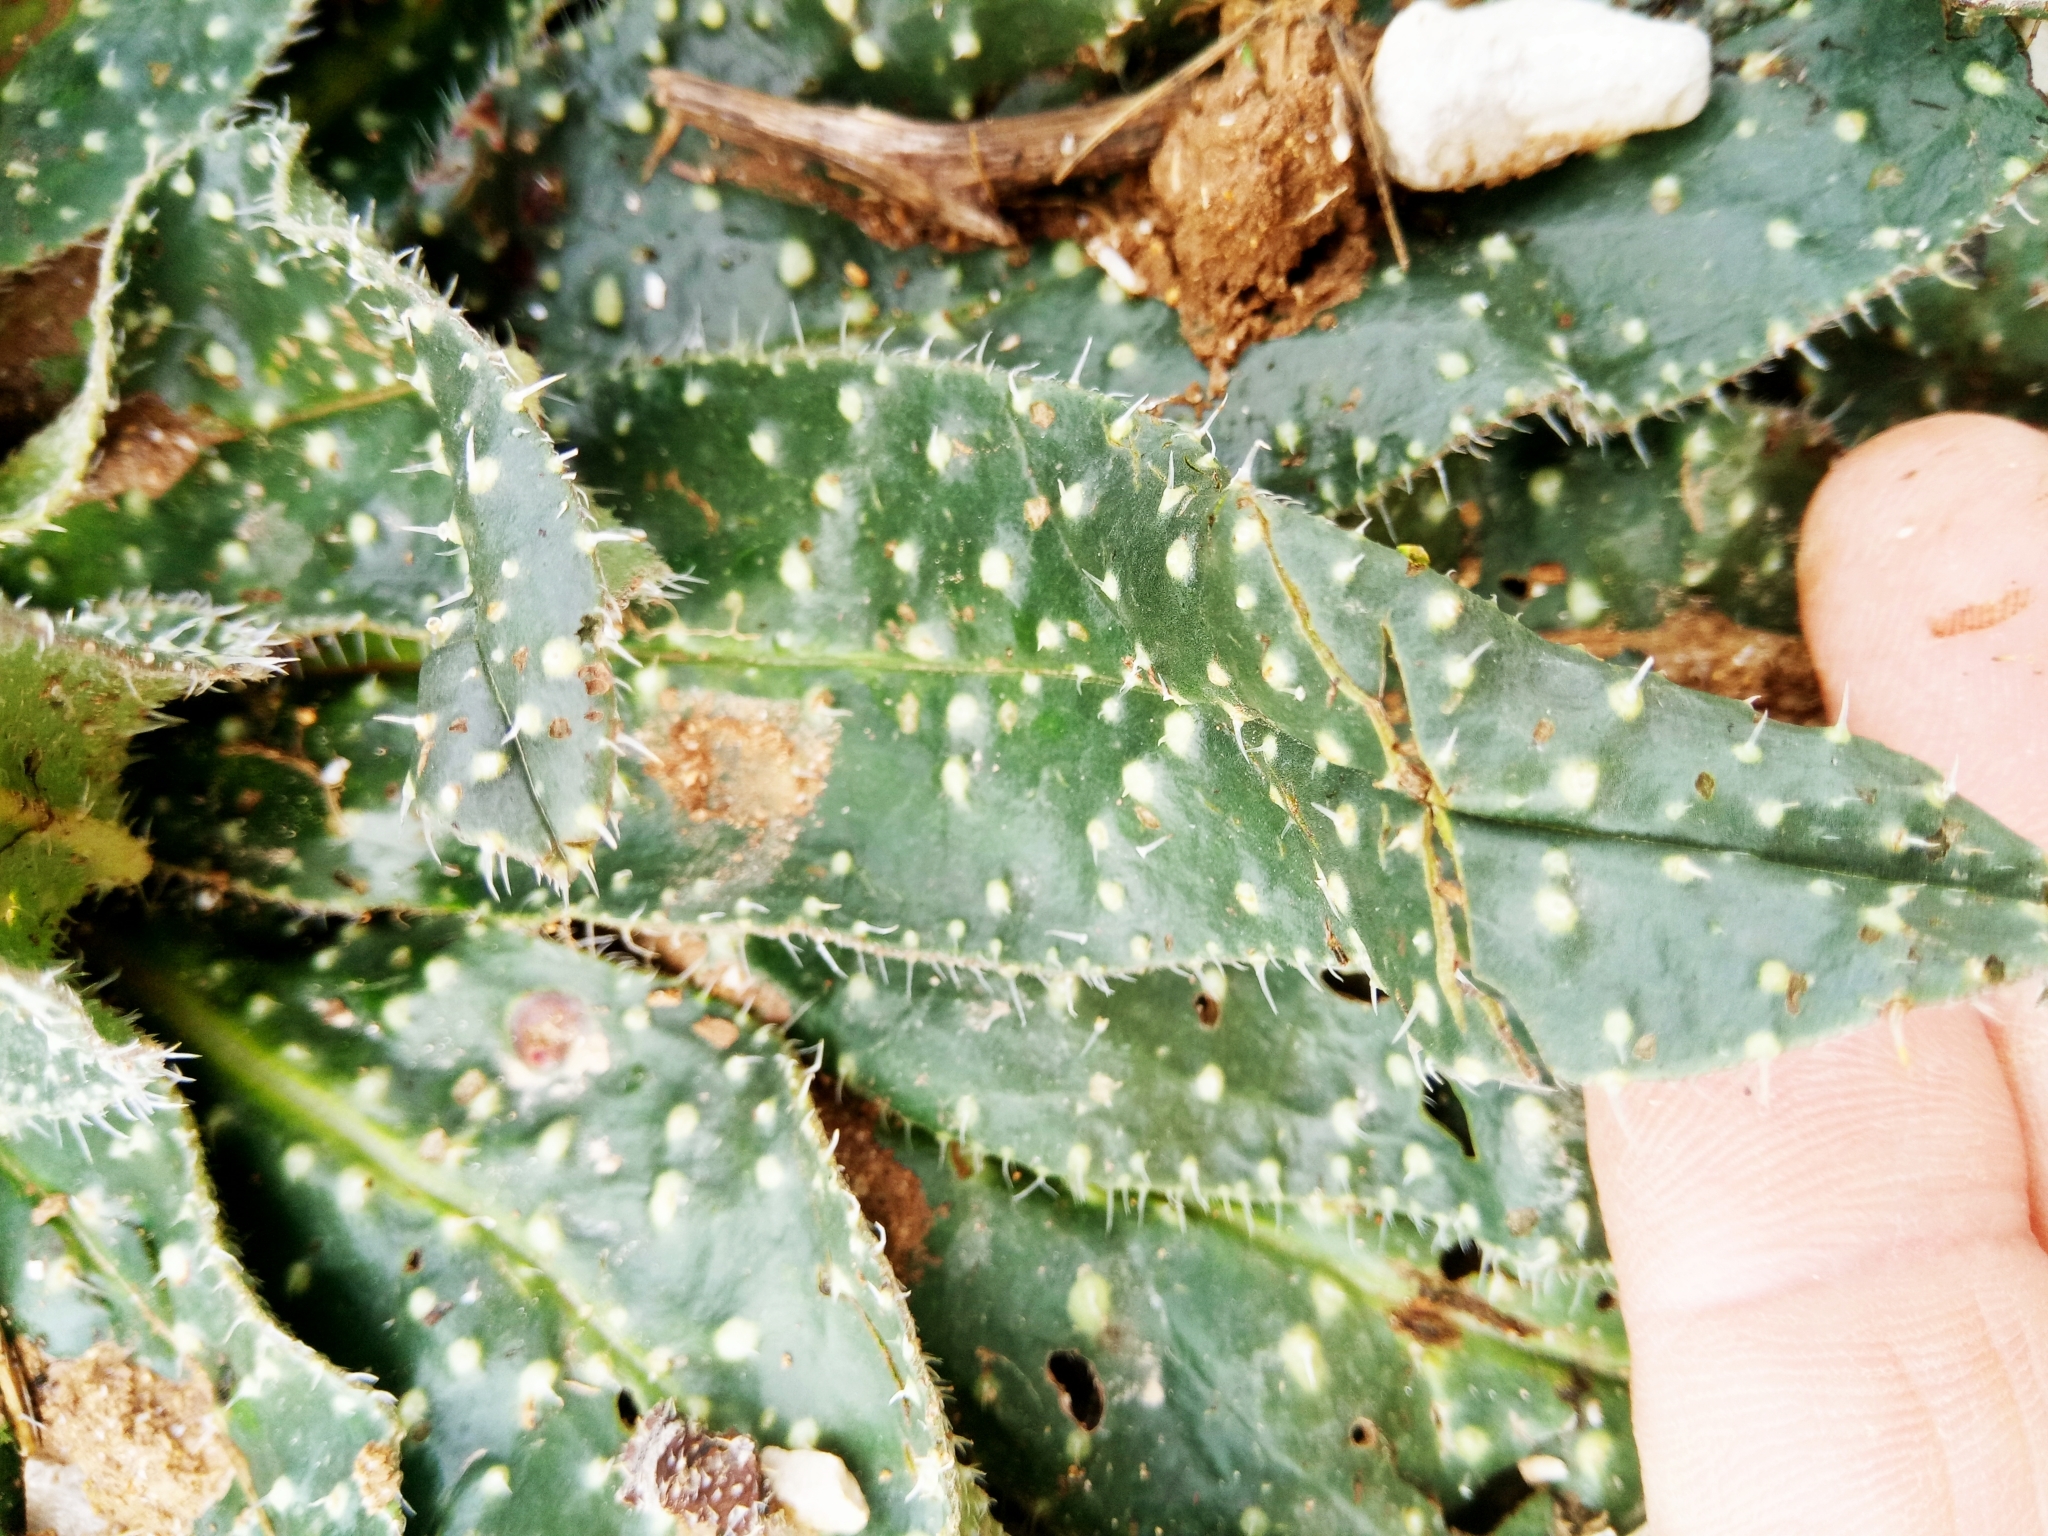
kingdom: Plantae
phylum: Tracheophyta
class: Magnoliopsida
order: Boraginales
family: Boraginaceae
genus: Echium
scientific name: Echium asperrimum
